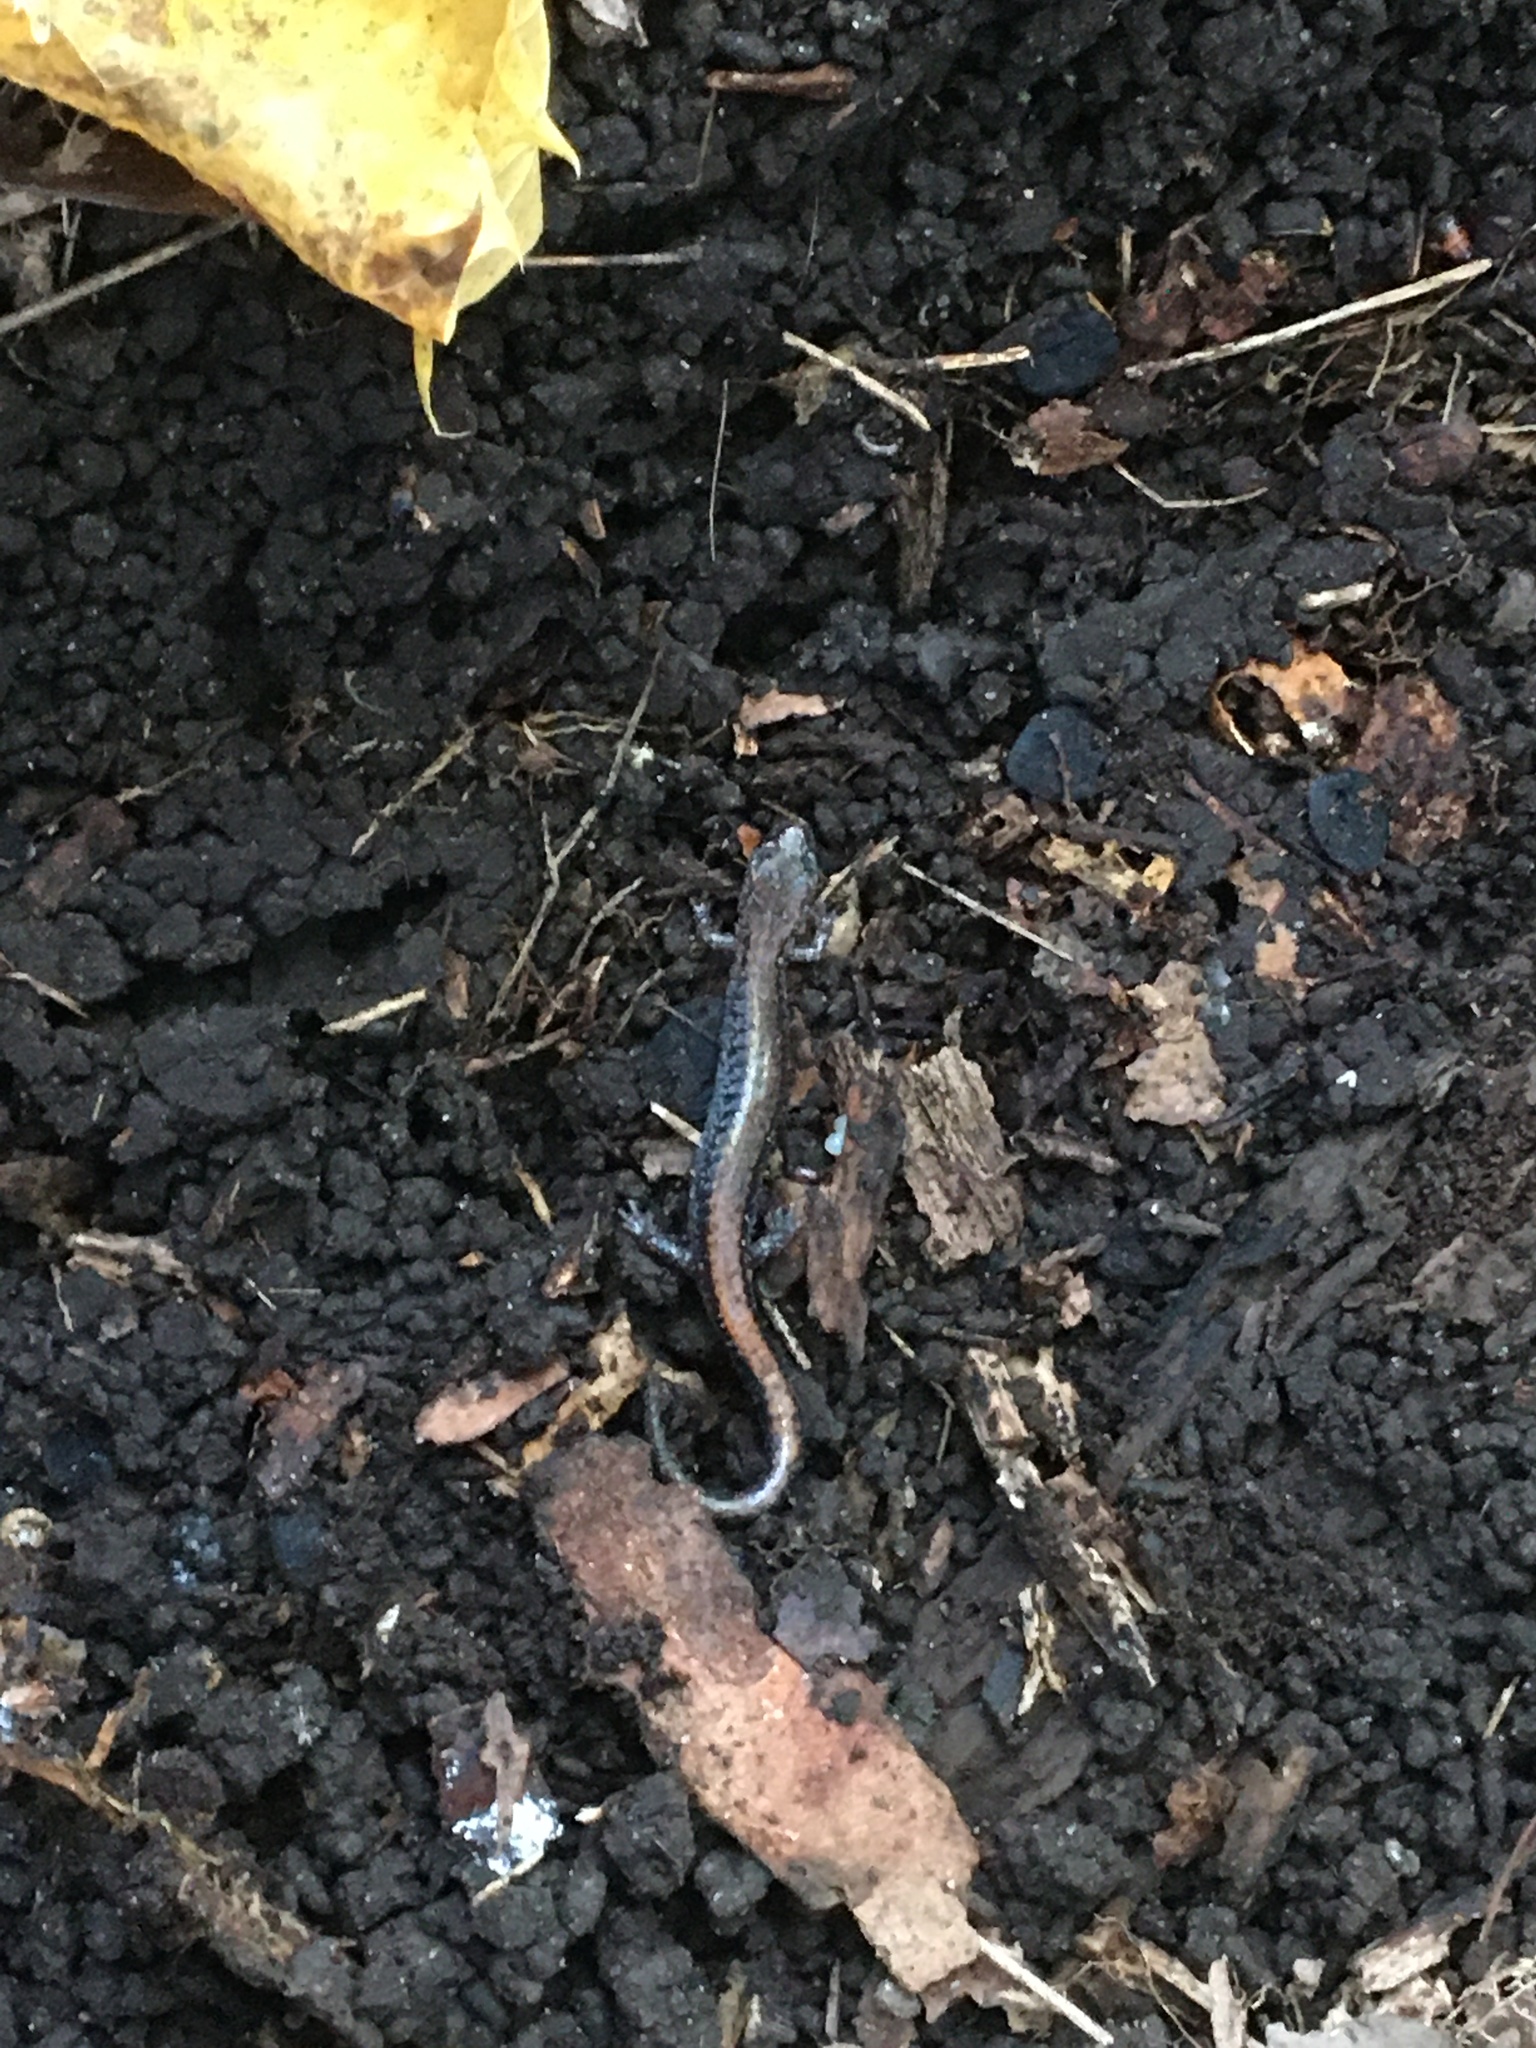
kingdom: Animalia
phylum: Chordata
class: Amphibia
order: Caudata
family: Plethodontidae
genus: Plethodon
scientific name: Plethodon cinereus
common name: Redback salamander
